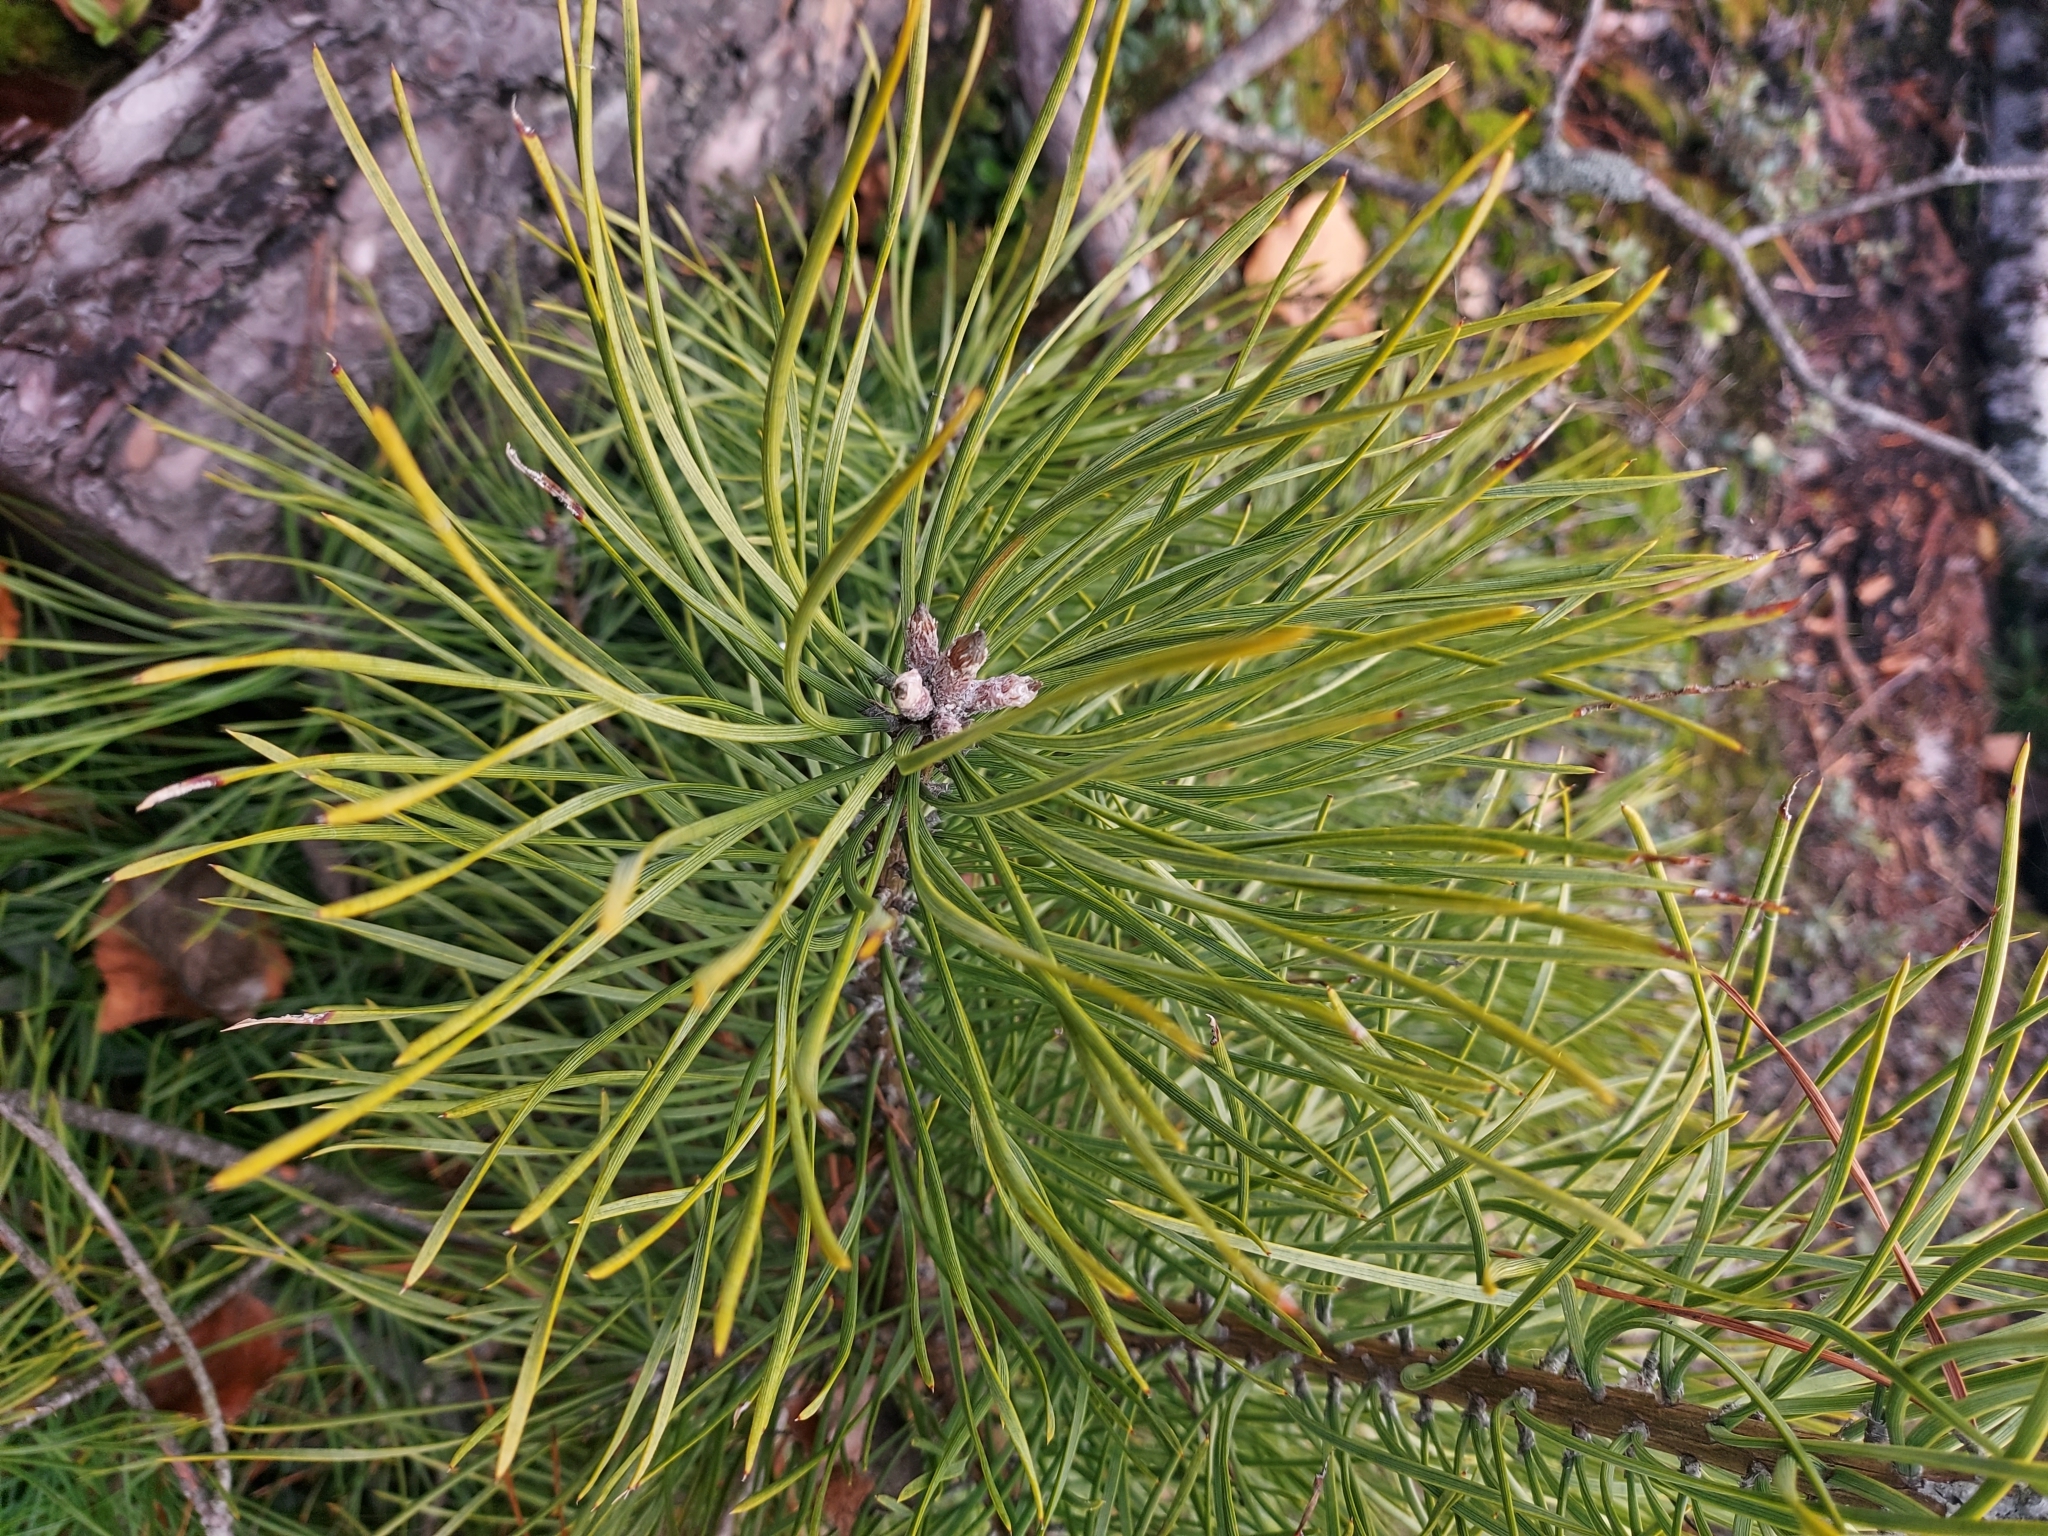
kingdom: Plantae
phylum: Tracheophyta
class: Pinopsida
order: Pinales
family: Pinaceae
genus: Pinus
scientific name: Pinus sylvestris
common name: Scots pine
